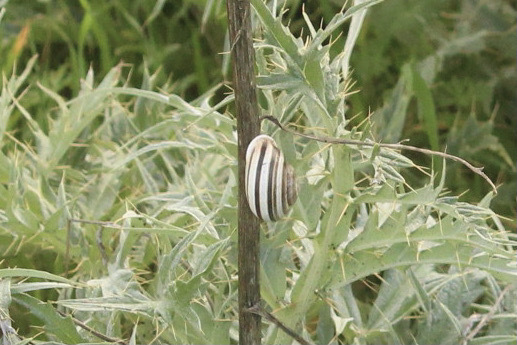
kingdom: Animalia
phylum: Mollusca
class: Gastropoda
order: Stylommatophora
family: Helicidae
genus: Otala
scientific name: Otala lactea
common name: Milk snail
